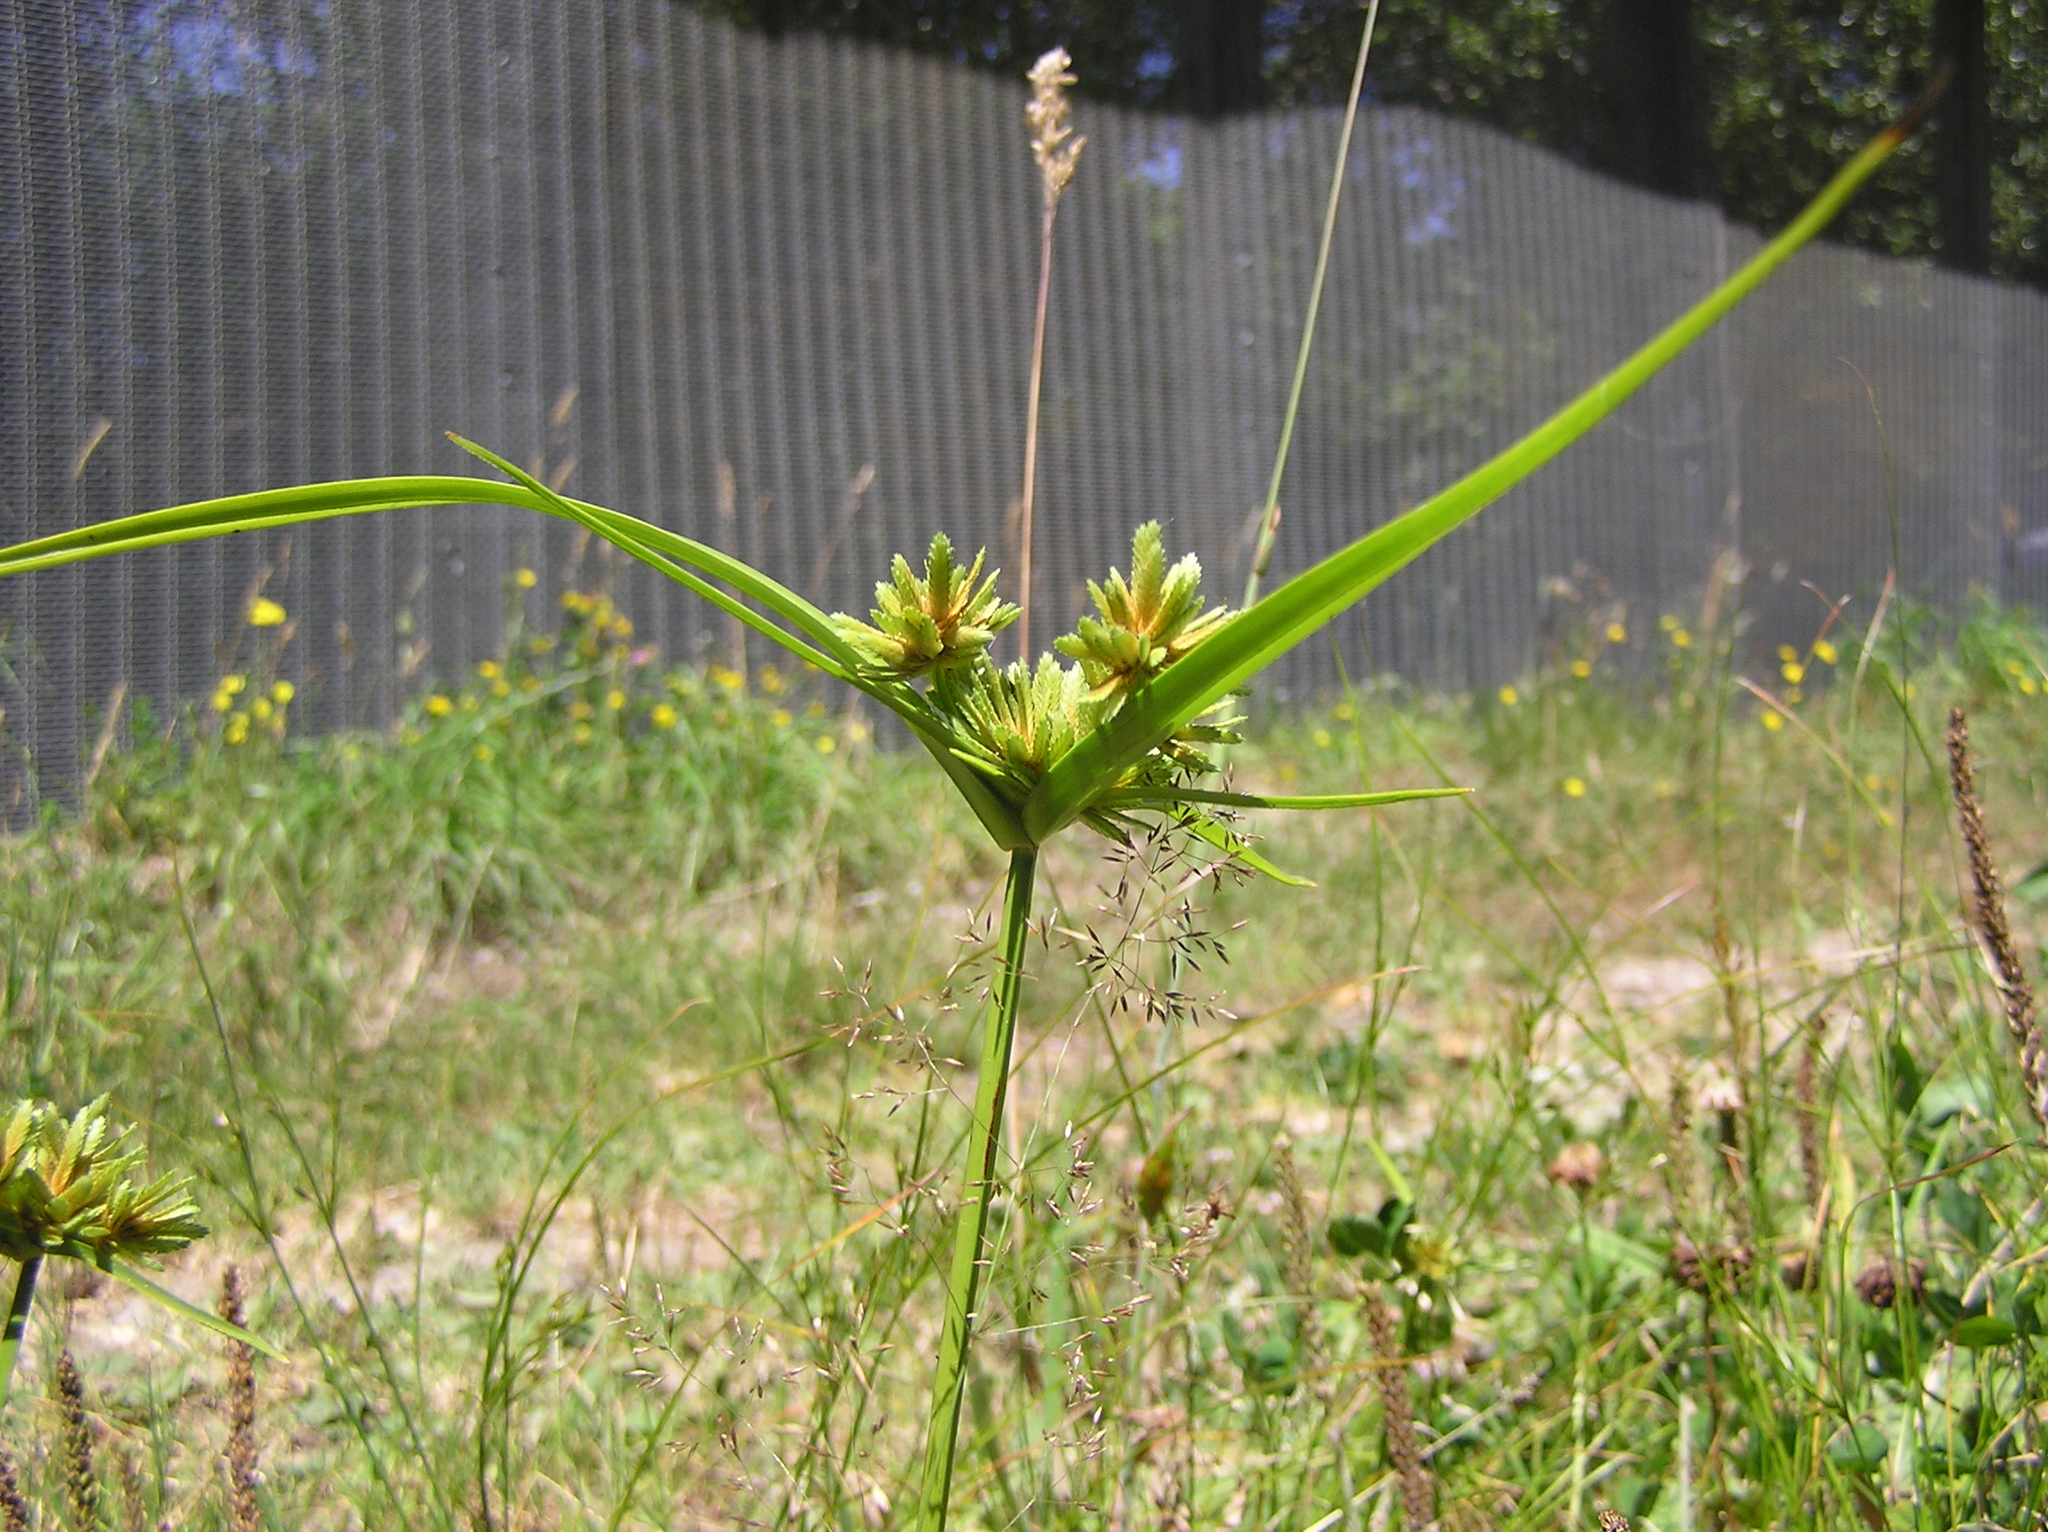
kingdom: Plantae
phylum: Tracheophyta
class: Liliopsida
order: Poales
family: Cyperaceae
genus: Cyperus
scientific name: Cyperus eragrostis
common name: Tall flatsedge
